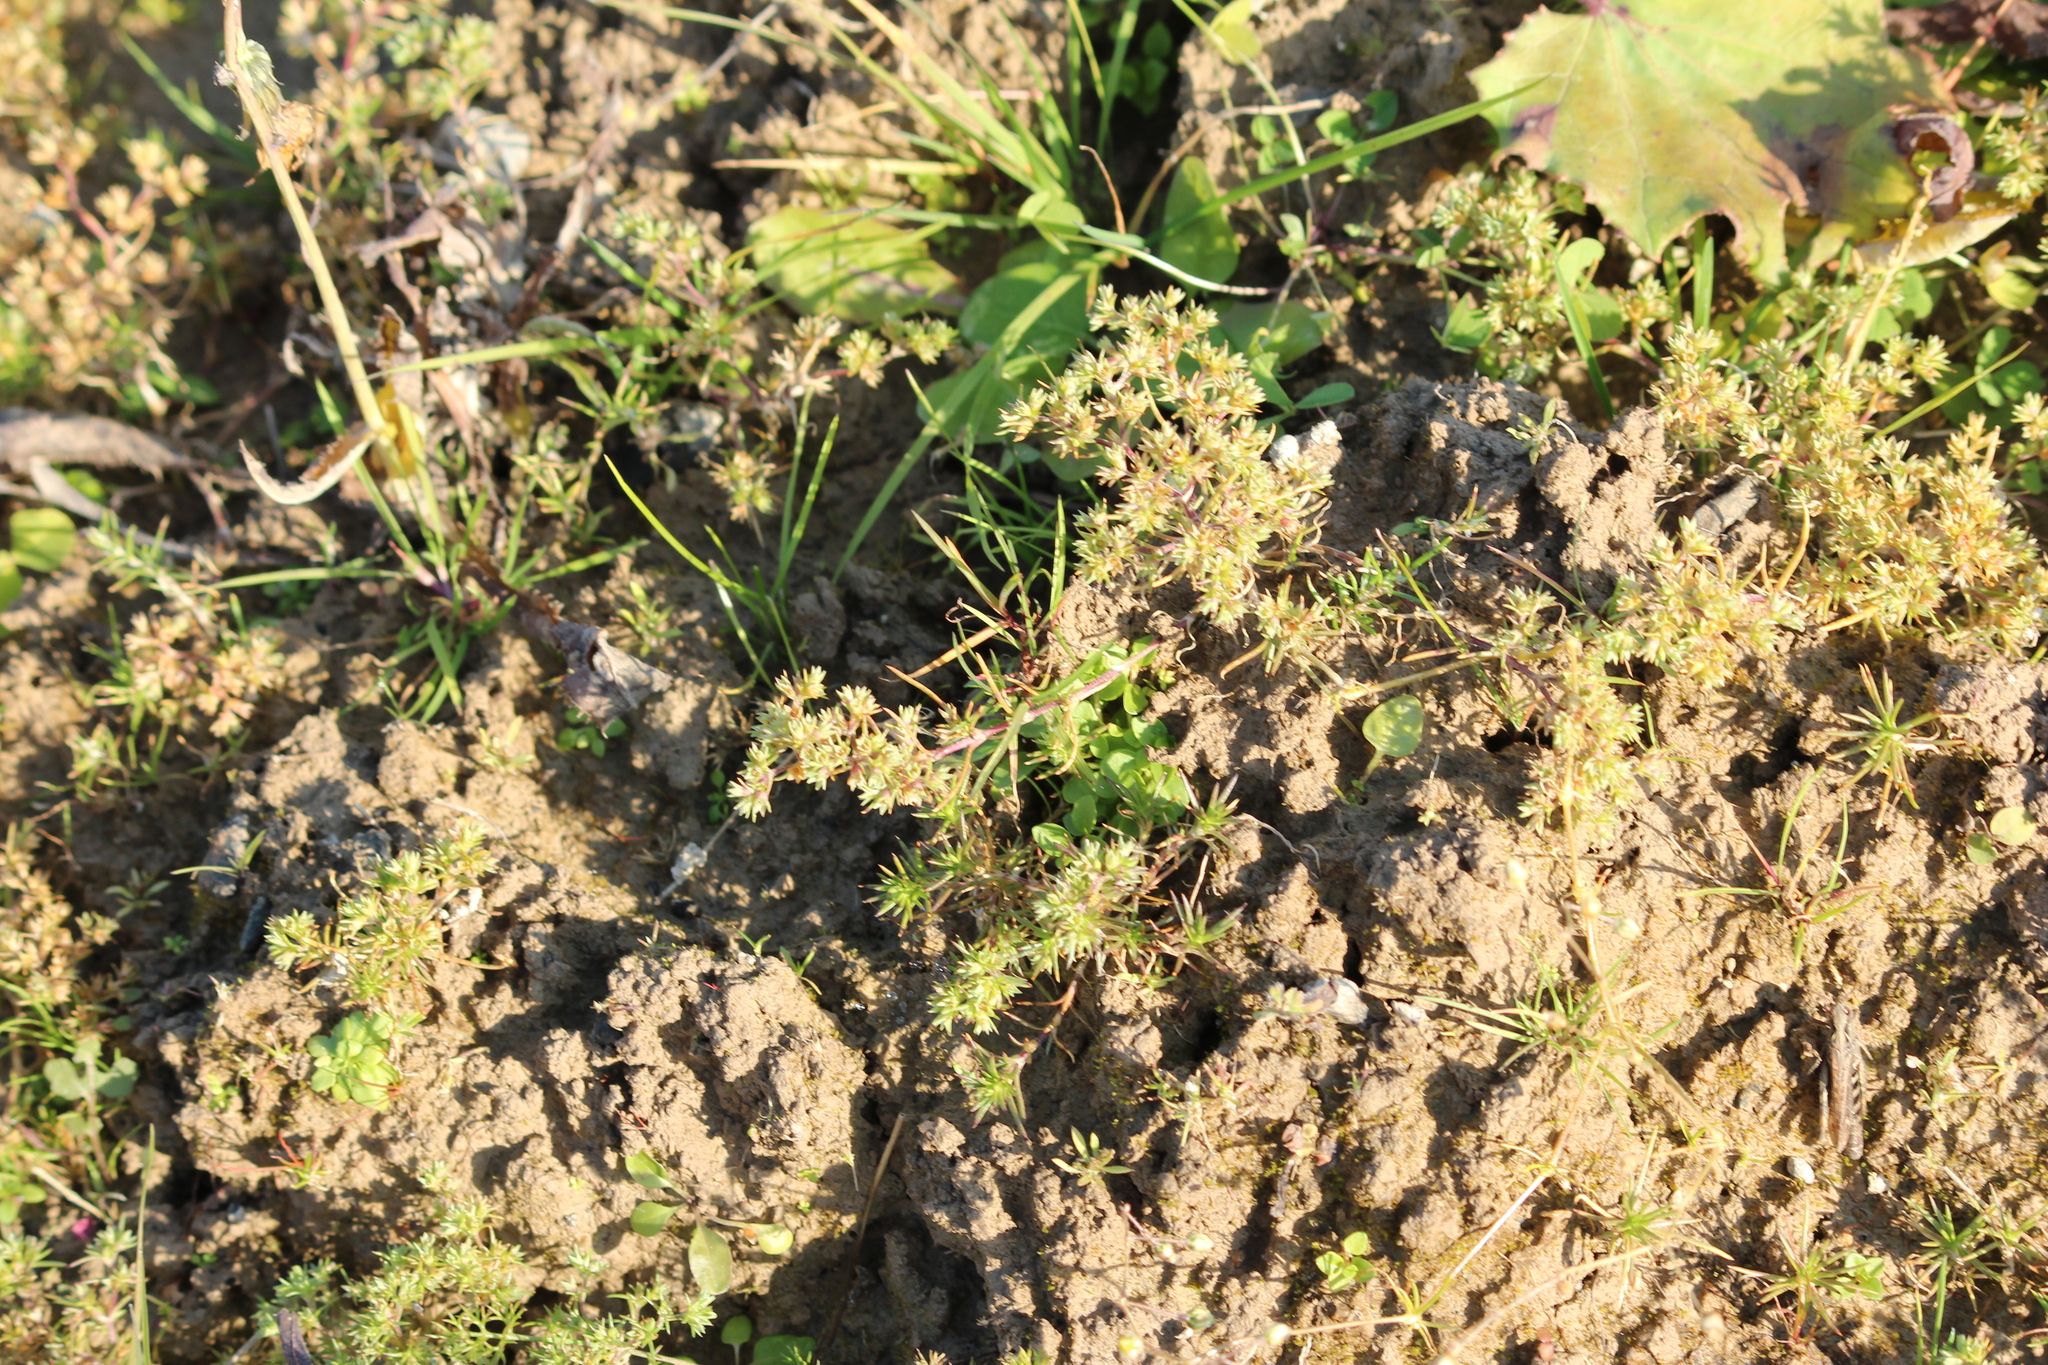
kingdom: Plantae
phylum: Tracheophyta
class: Magnoliopsida
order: Caryophyllales
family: Caryophyllaceae
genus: Scleranthus
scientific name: Scleranthus annuus
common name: Annual knawel
